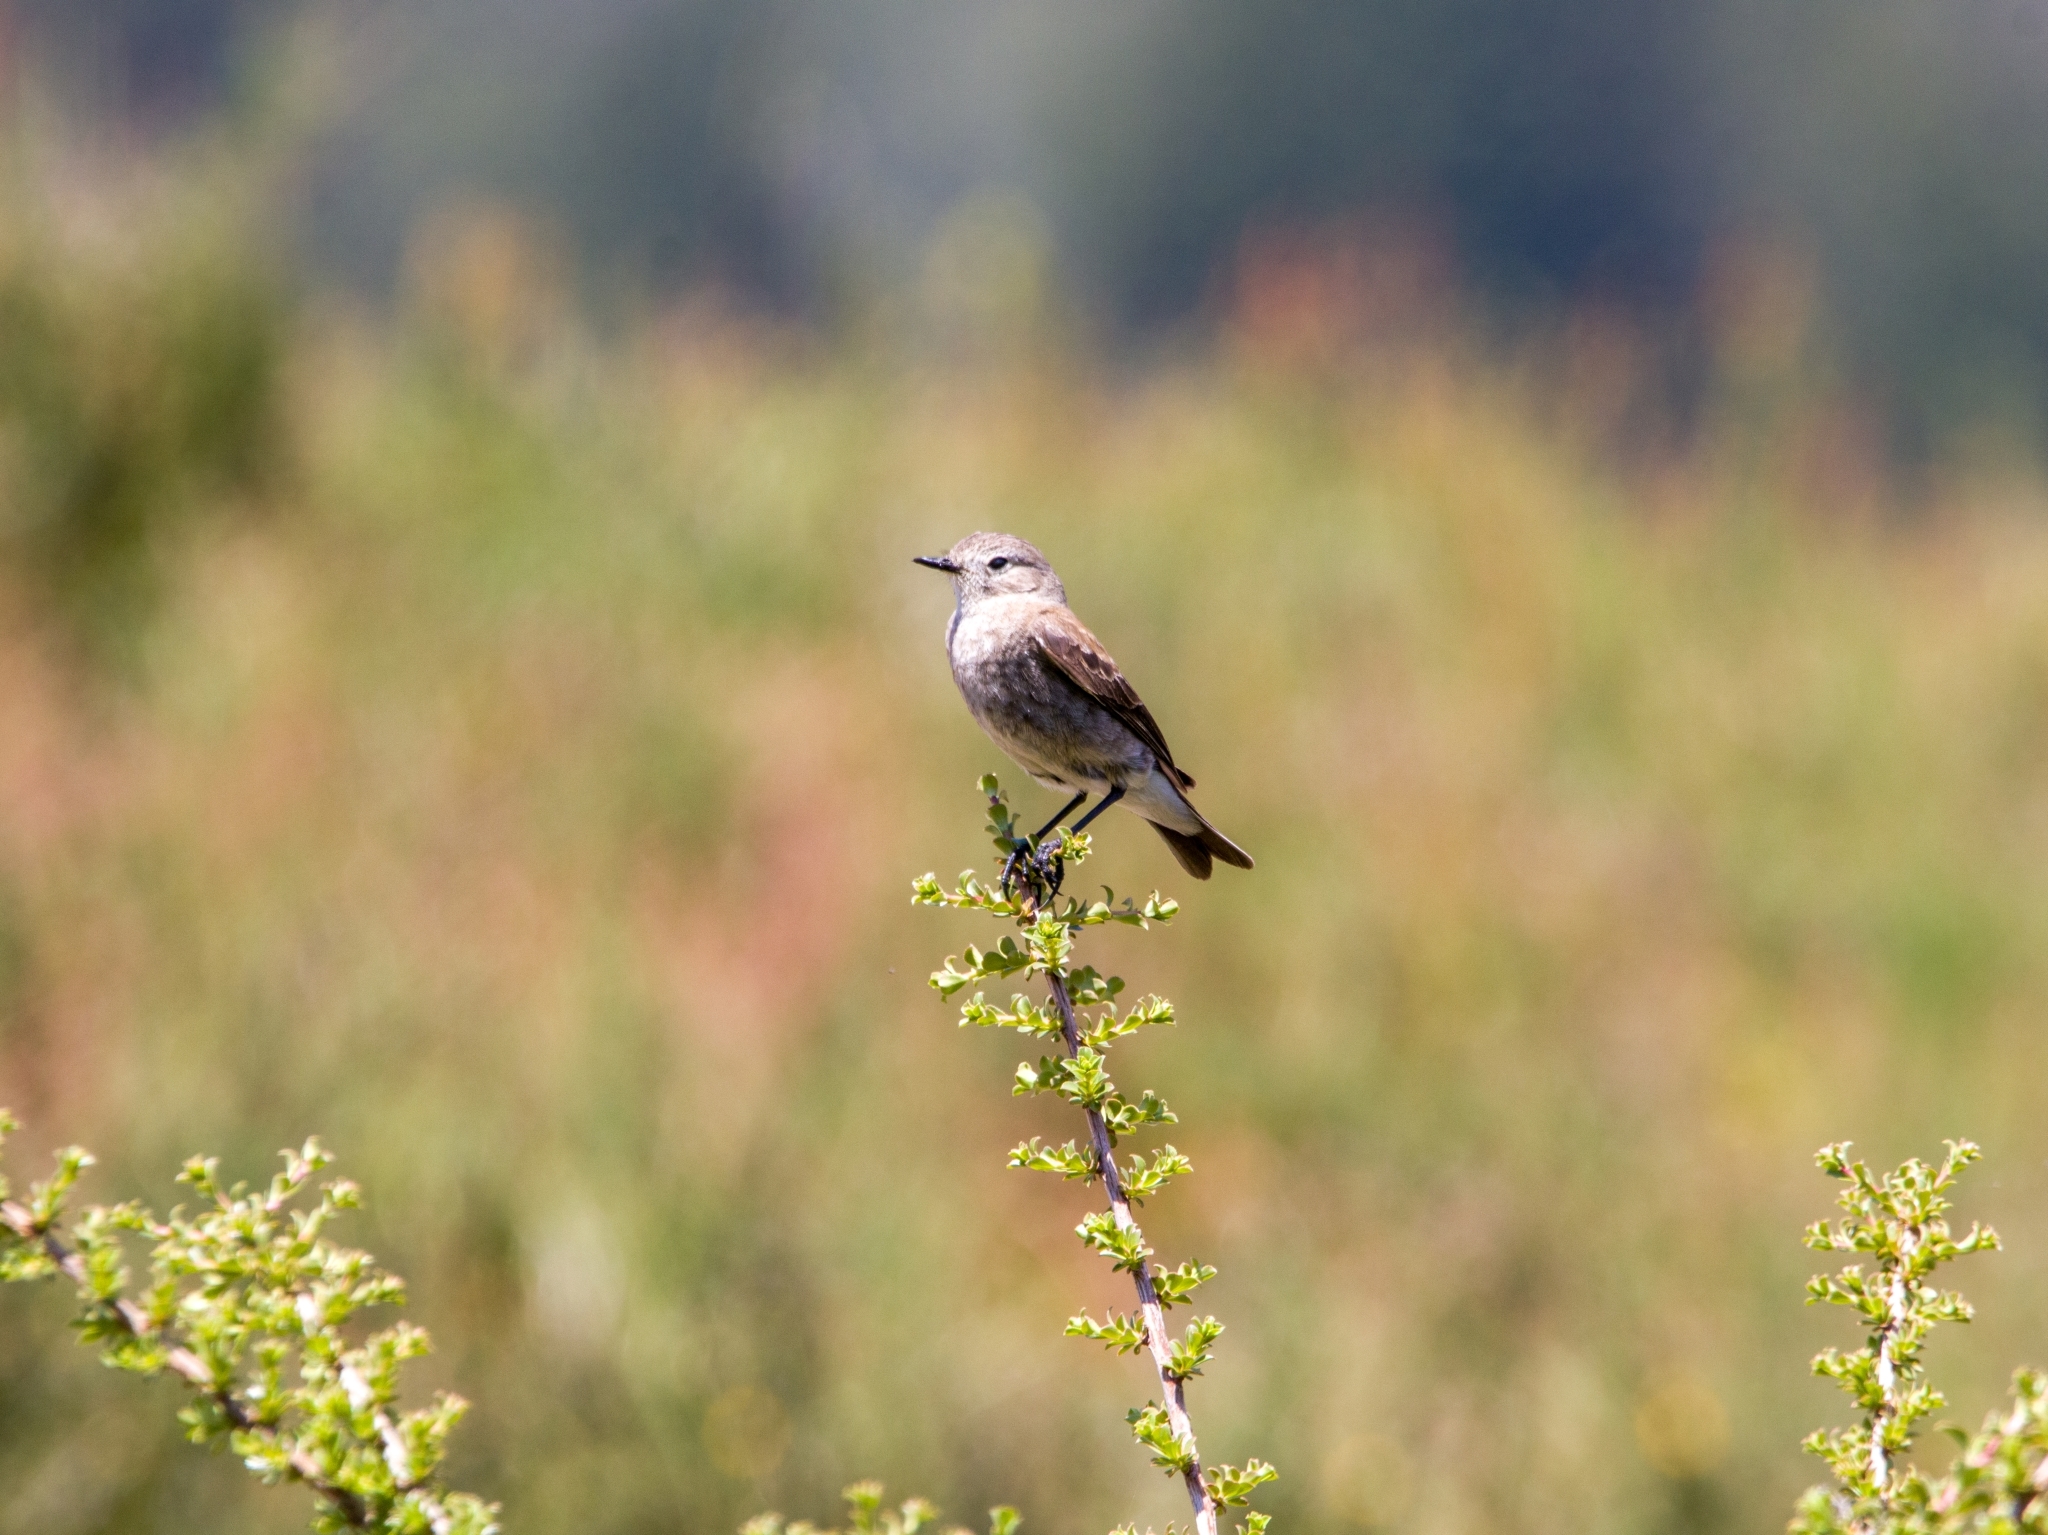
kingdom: Animalia
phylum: Chordata
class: Aves
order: Passeriformes
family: Tyrannidae
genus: Lessonia
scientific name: Lessonia rufa
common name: Austral negrito
